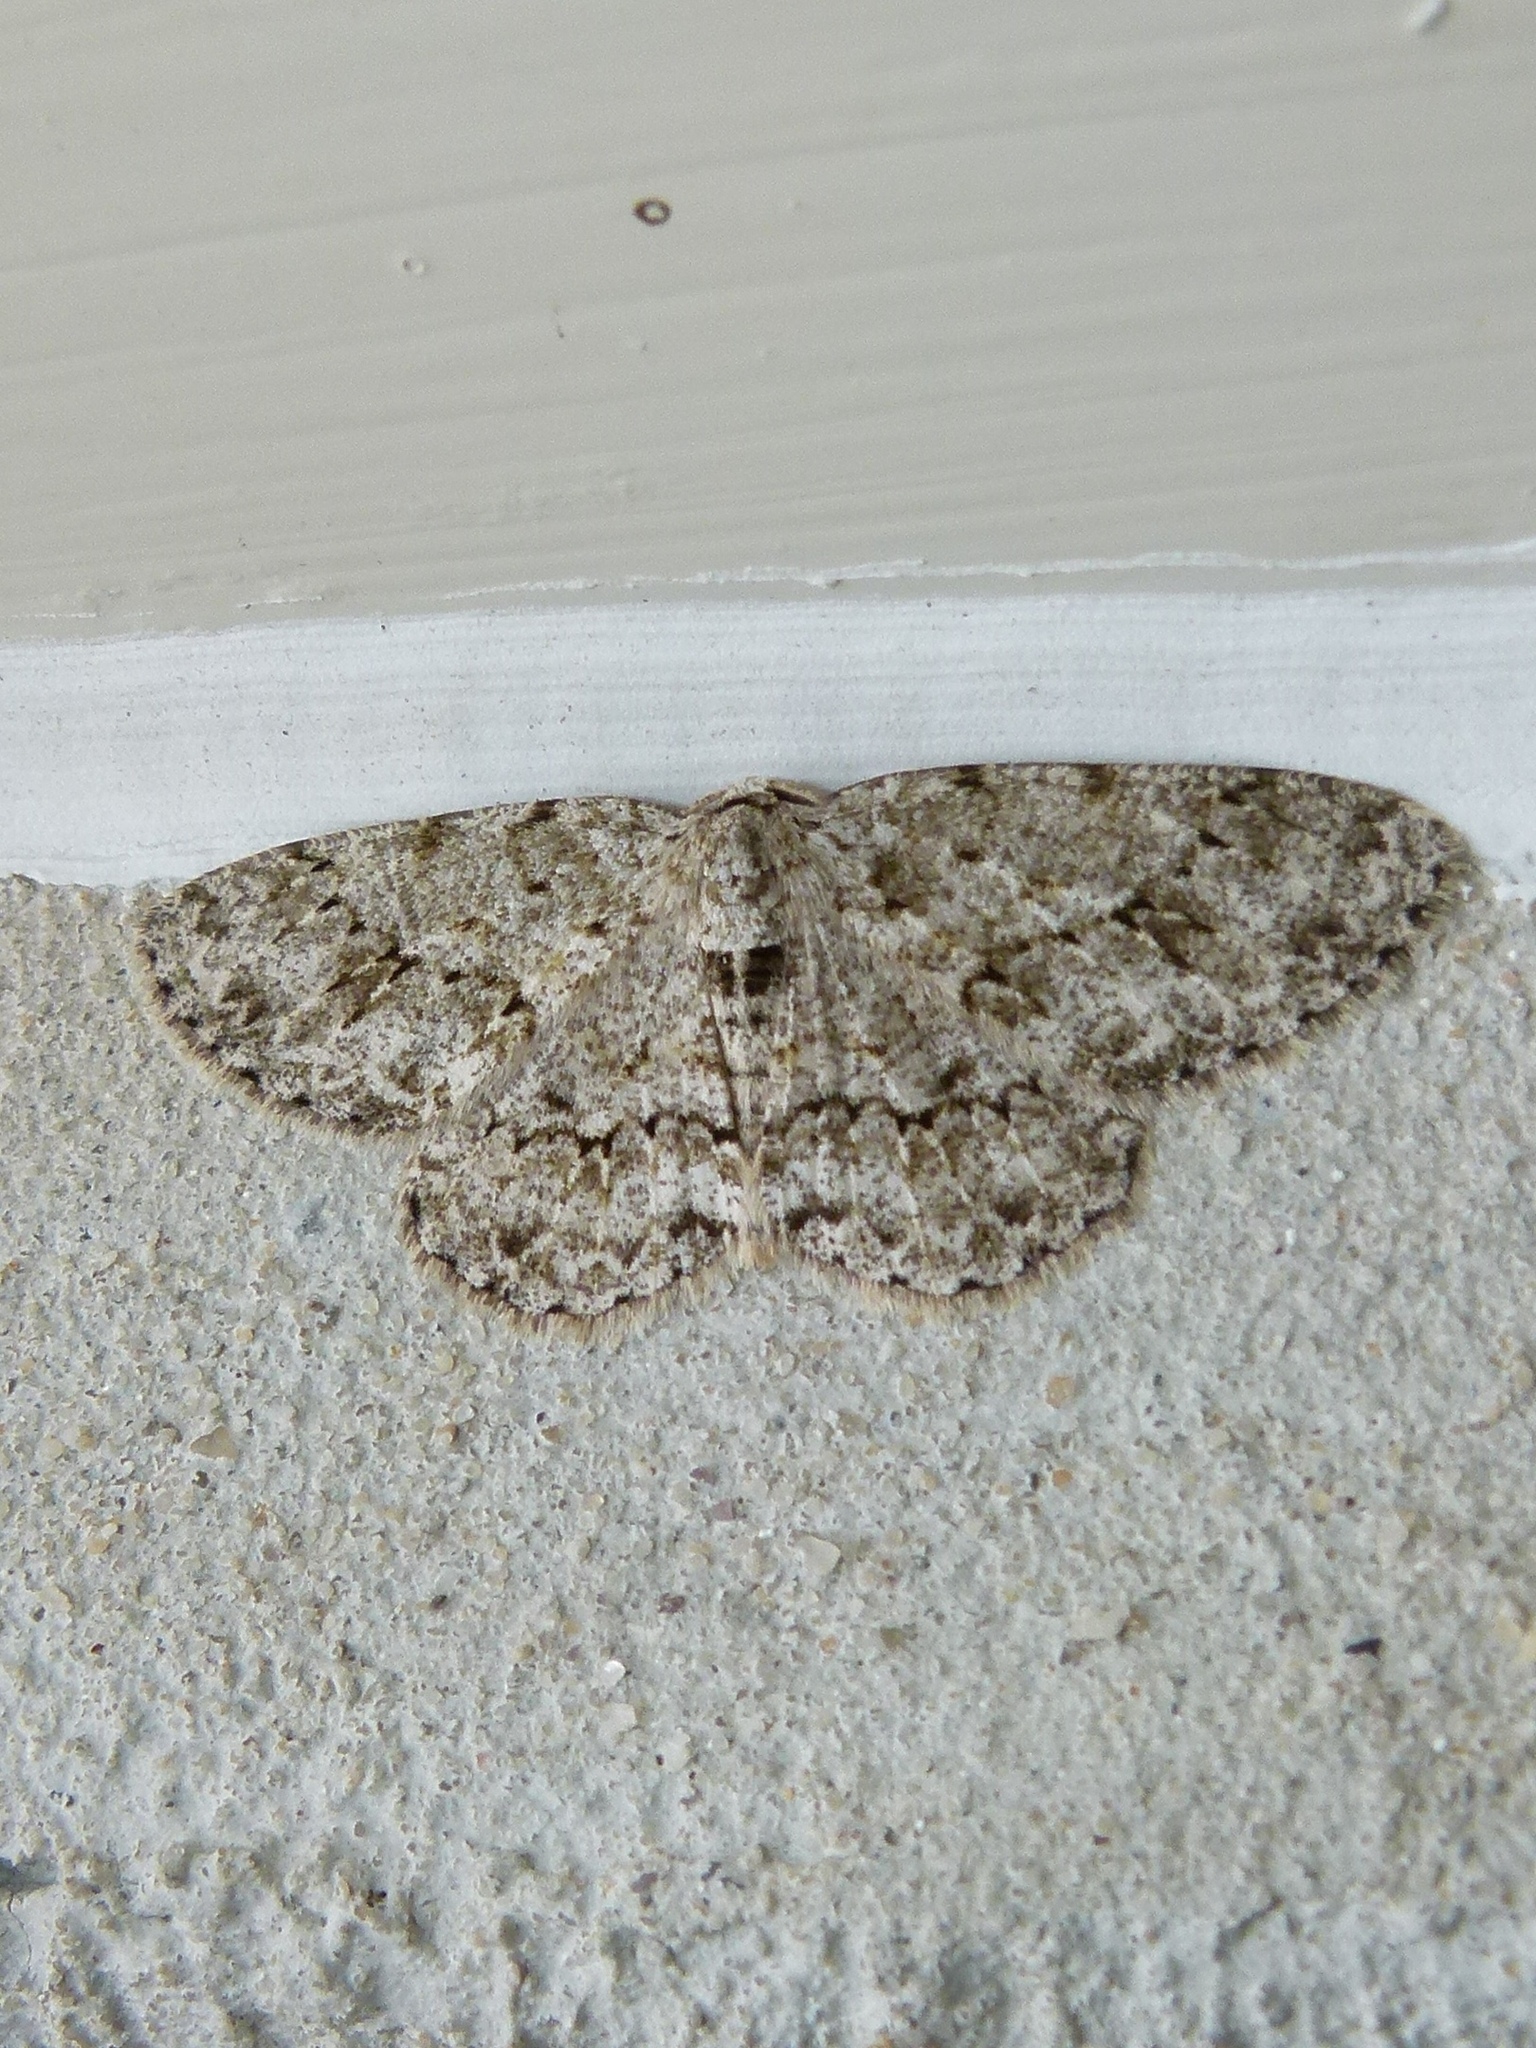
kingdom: Animalia
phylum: Arthropoda
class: Insecta
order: Lepidoptera
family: Geometridae
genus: Ectropis
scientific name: Ectropis crepuscularia
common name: Engrailed
